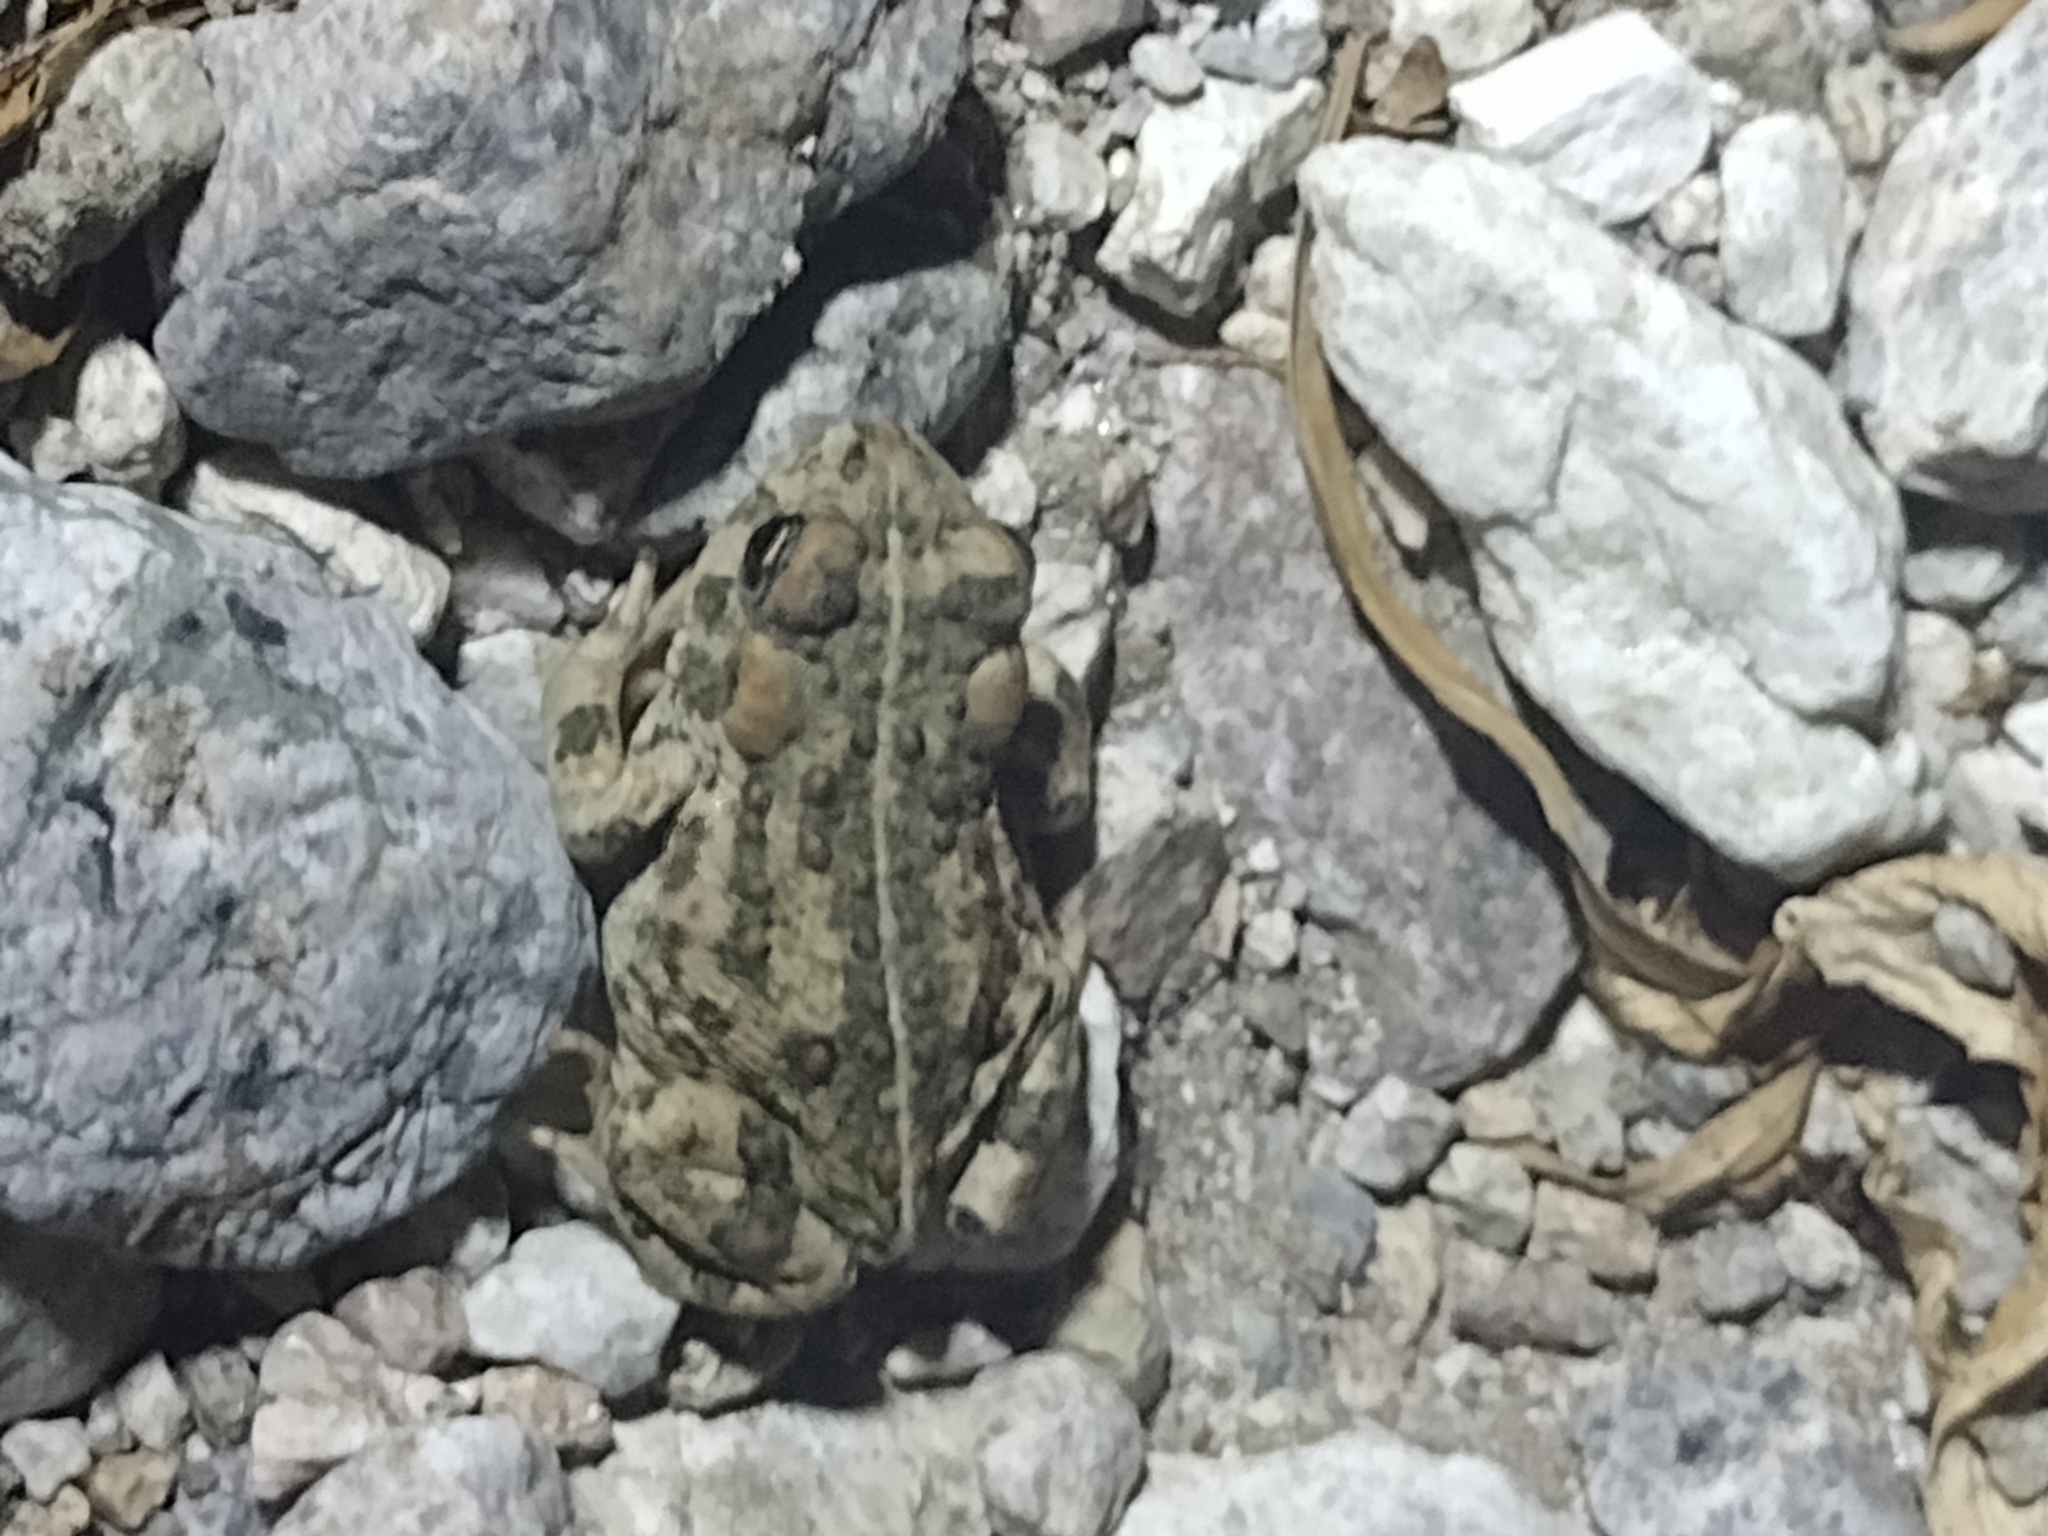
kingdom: Animalia
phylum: Chordata
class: Amphibia
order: Anura
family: Bufonidae
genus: Anaxyrus
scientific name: Anaxyrus boreas
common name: Western toad
